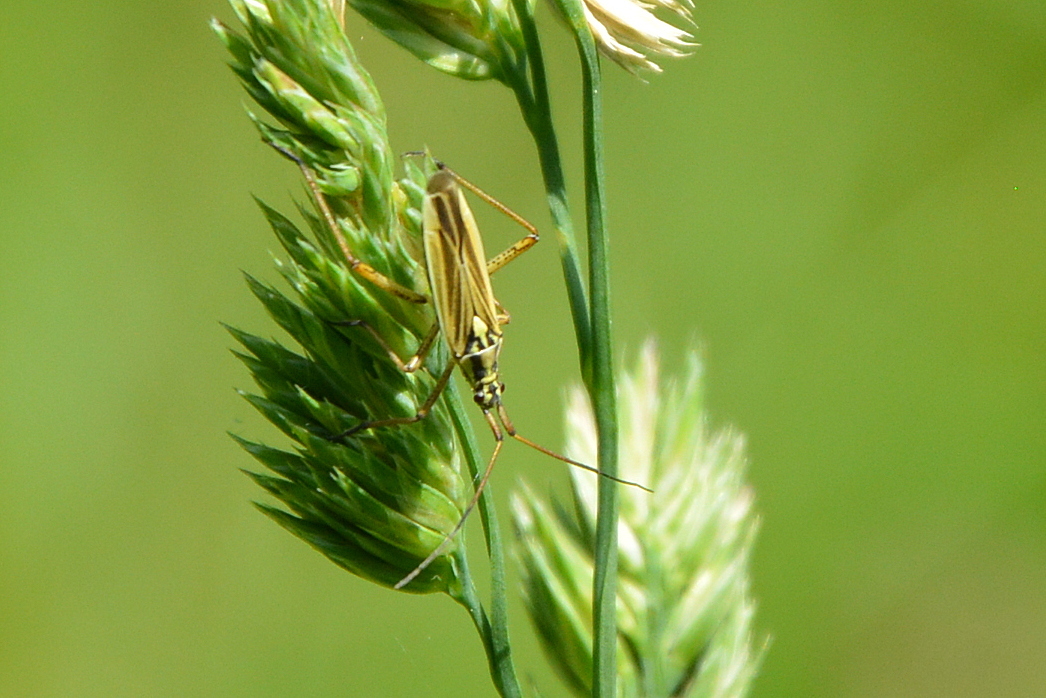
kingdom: Animalia
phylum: Arthropoda
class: Insecta
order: Hemiptera
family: Miridae
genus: Leptopterna
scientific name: Leptopterna dolabrata
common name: Meadow plant bug
